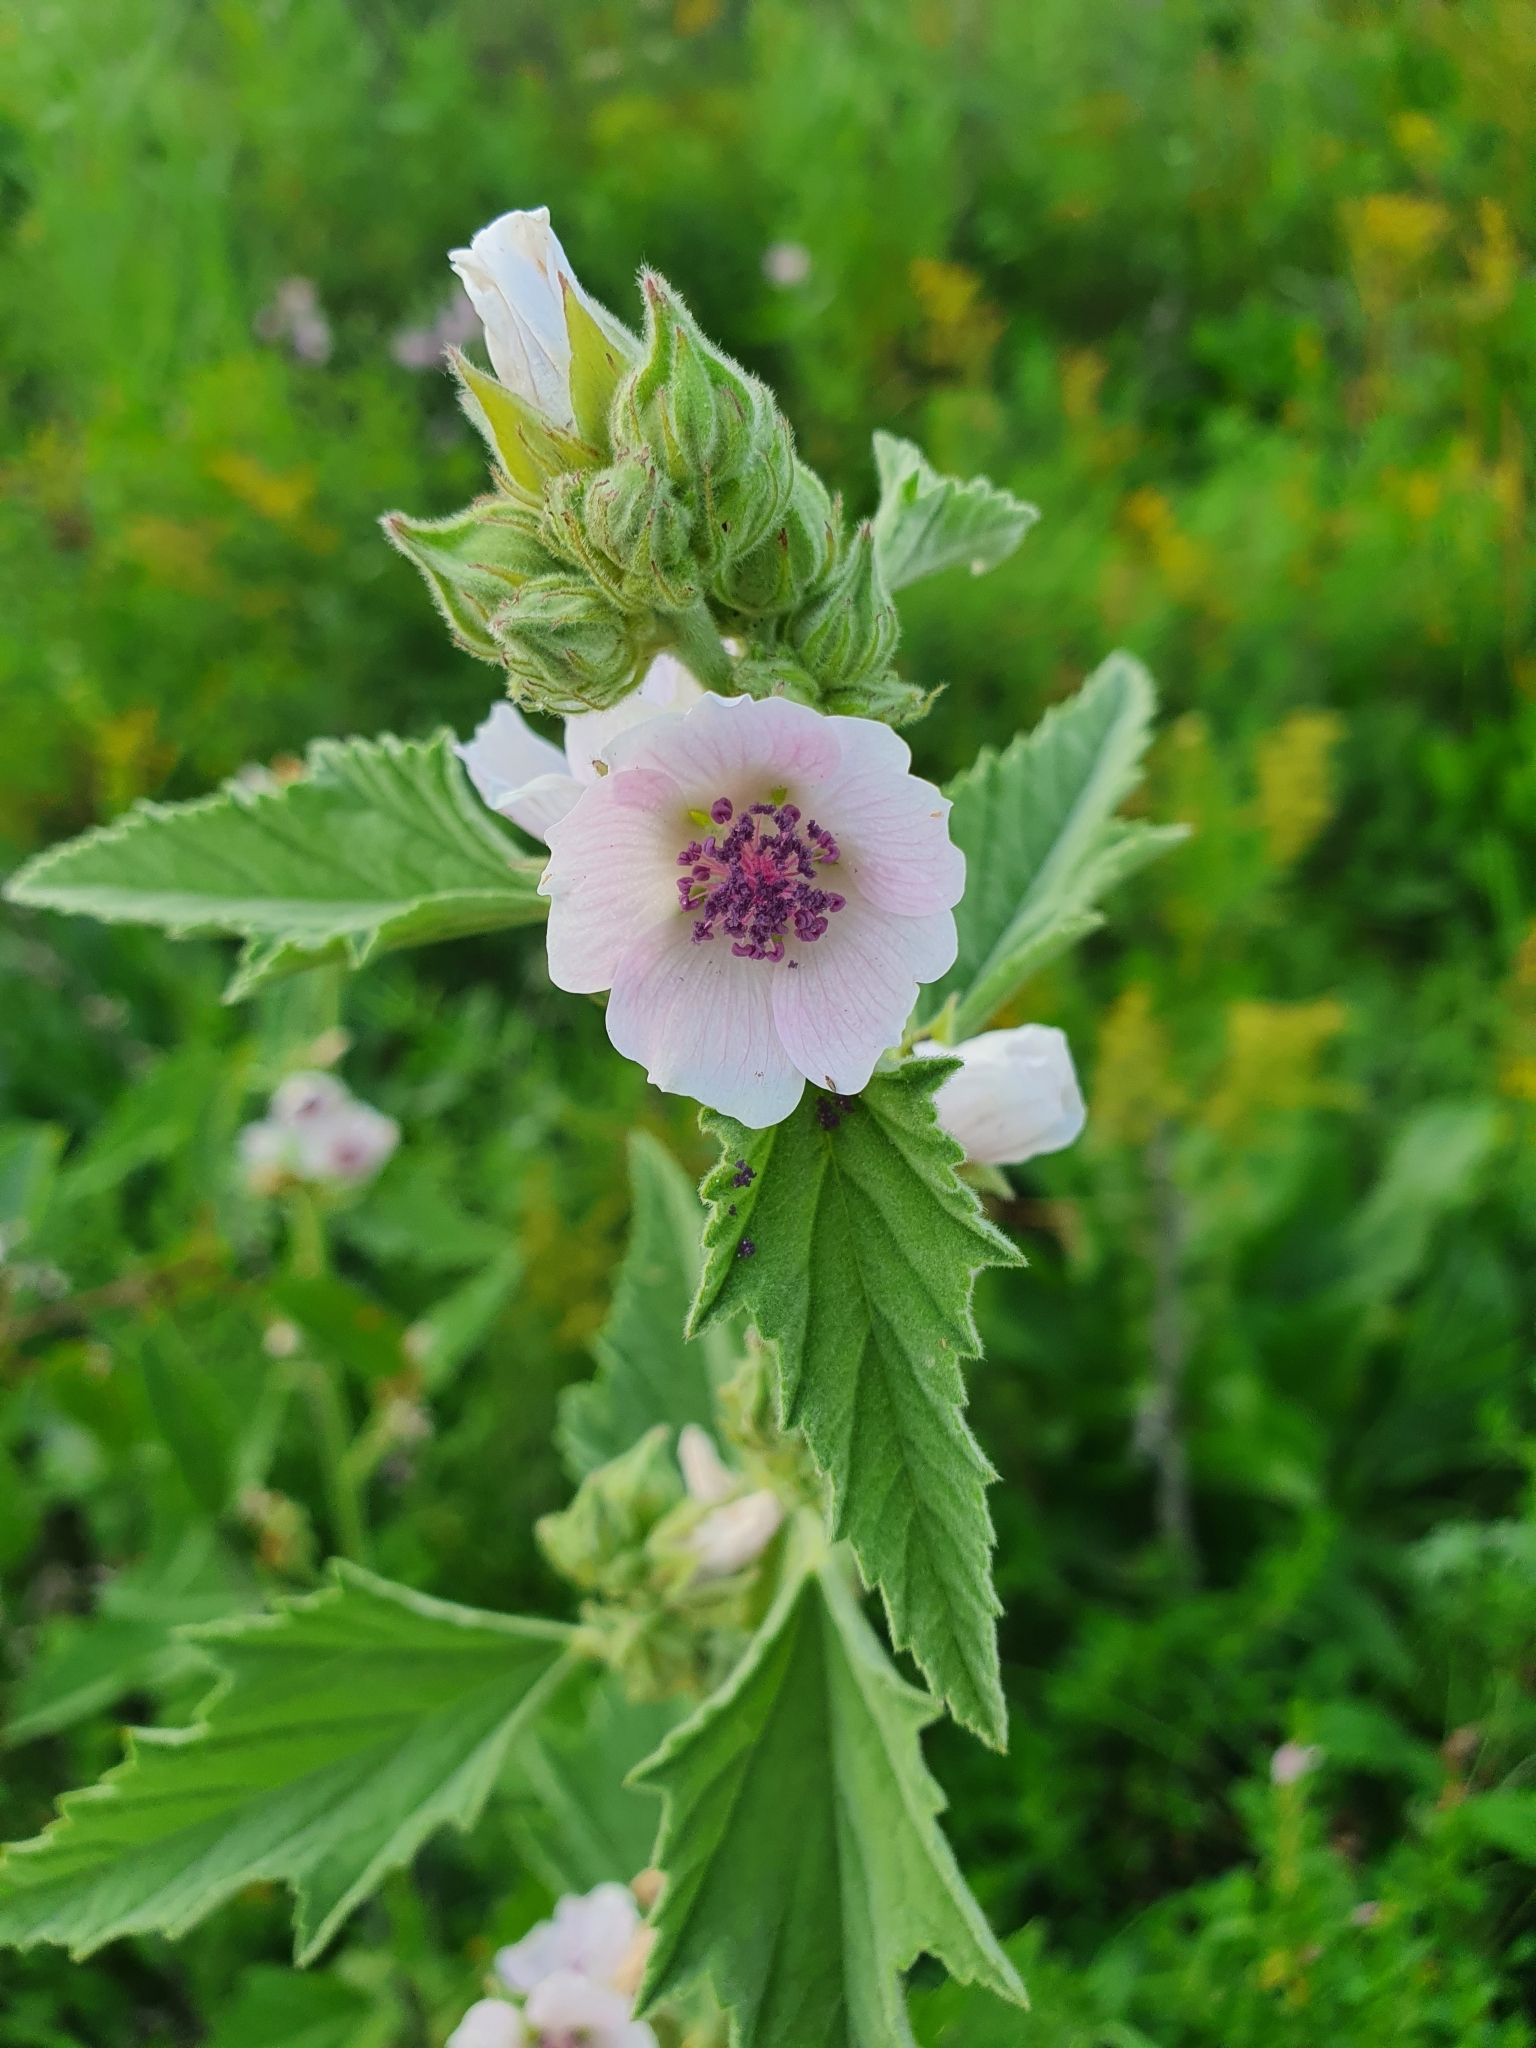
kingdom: Plantae
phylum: Tracheophyta
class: Magnoliopsida
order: Malvales
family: Malvaceae
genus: Althaea
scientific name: Althaea officinalis
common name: Marsh-mallow
